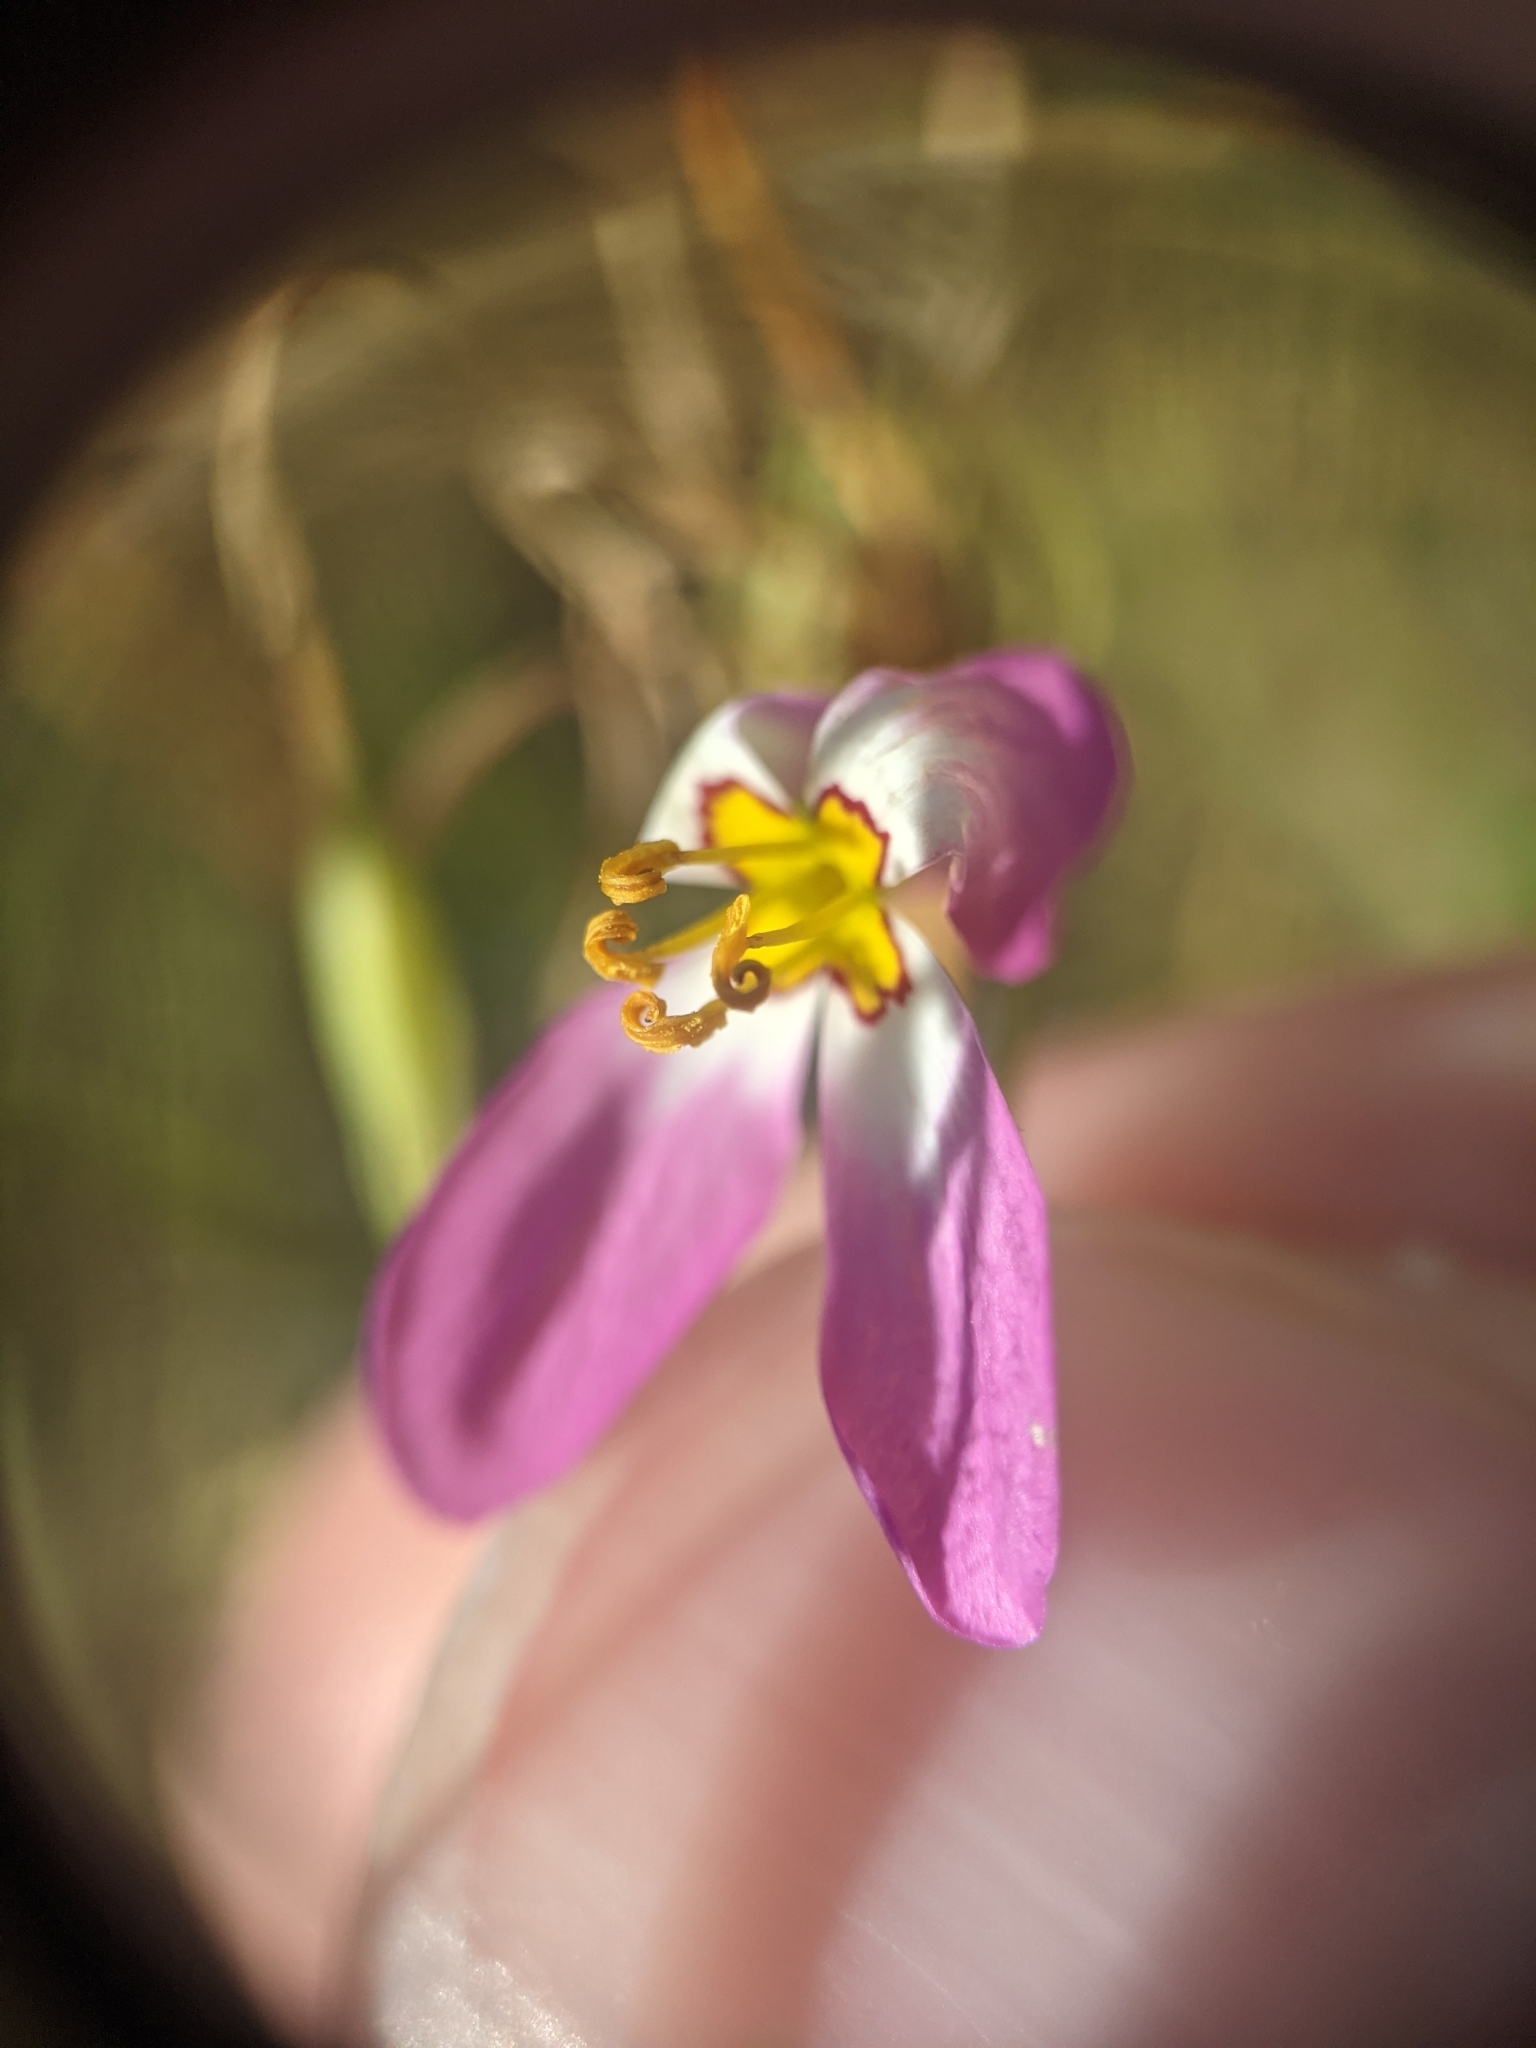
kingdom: Plantae
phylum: Tracheophyta
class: Magnoliopsida
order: Gentianales
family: Gentianaceae
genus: Sabatia
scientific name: Sabatia stellaris
